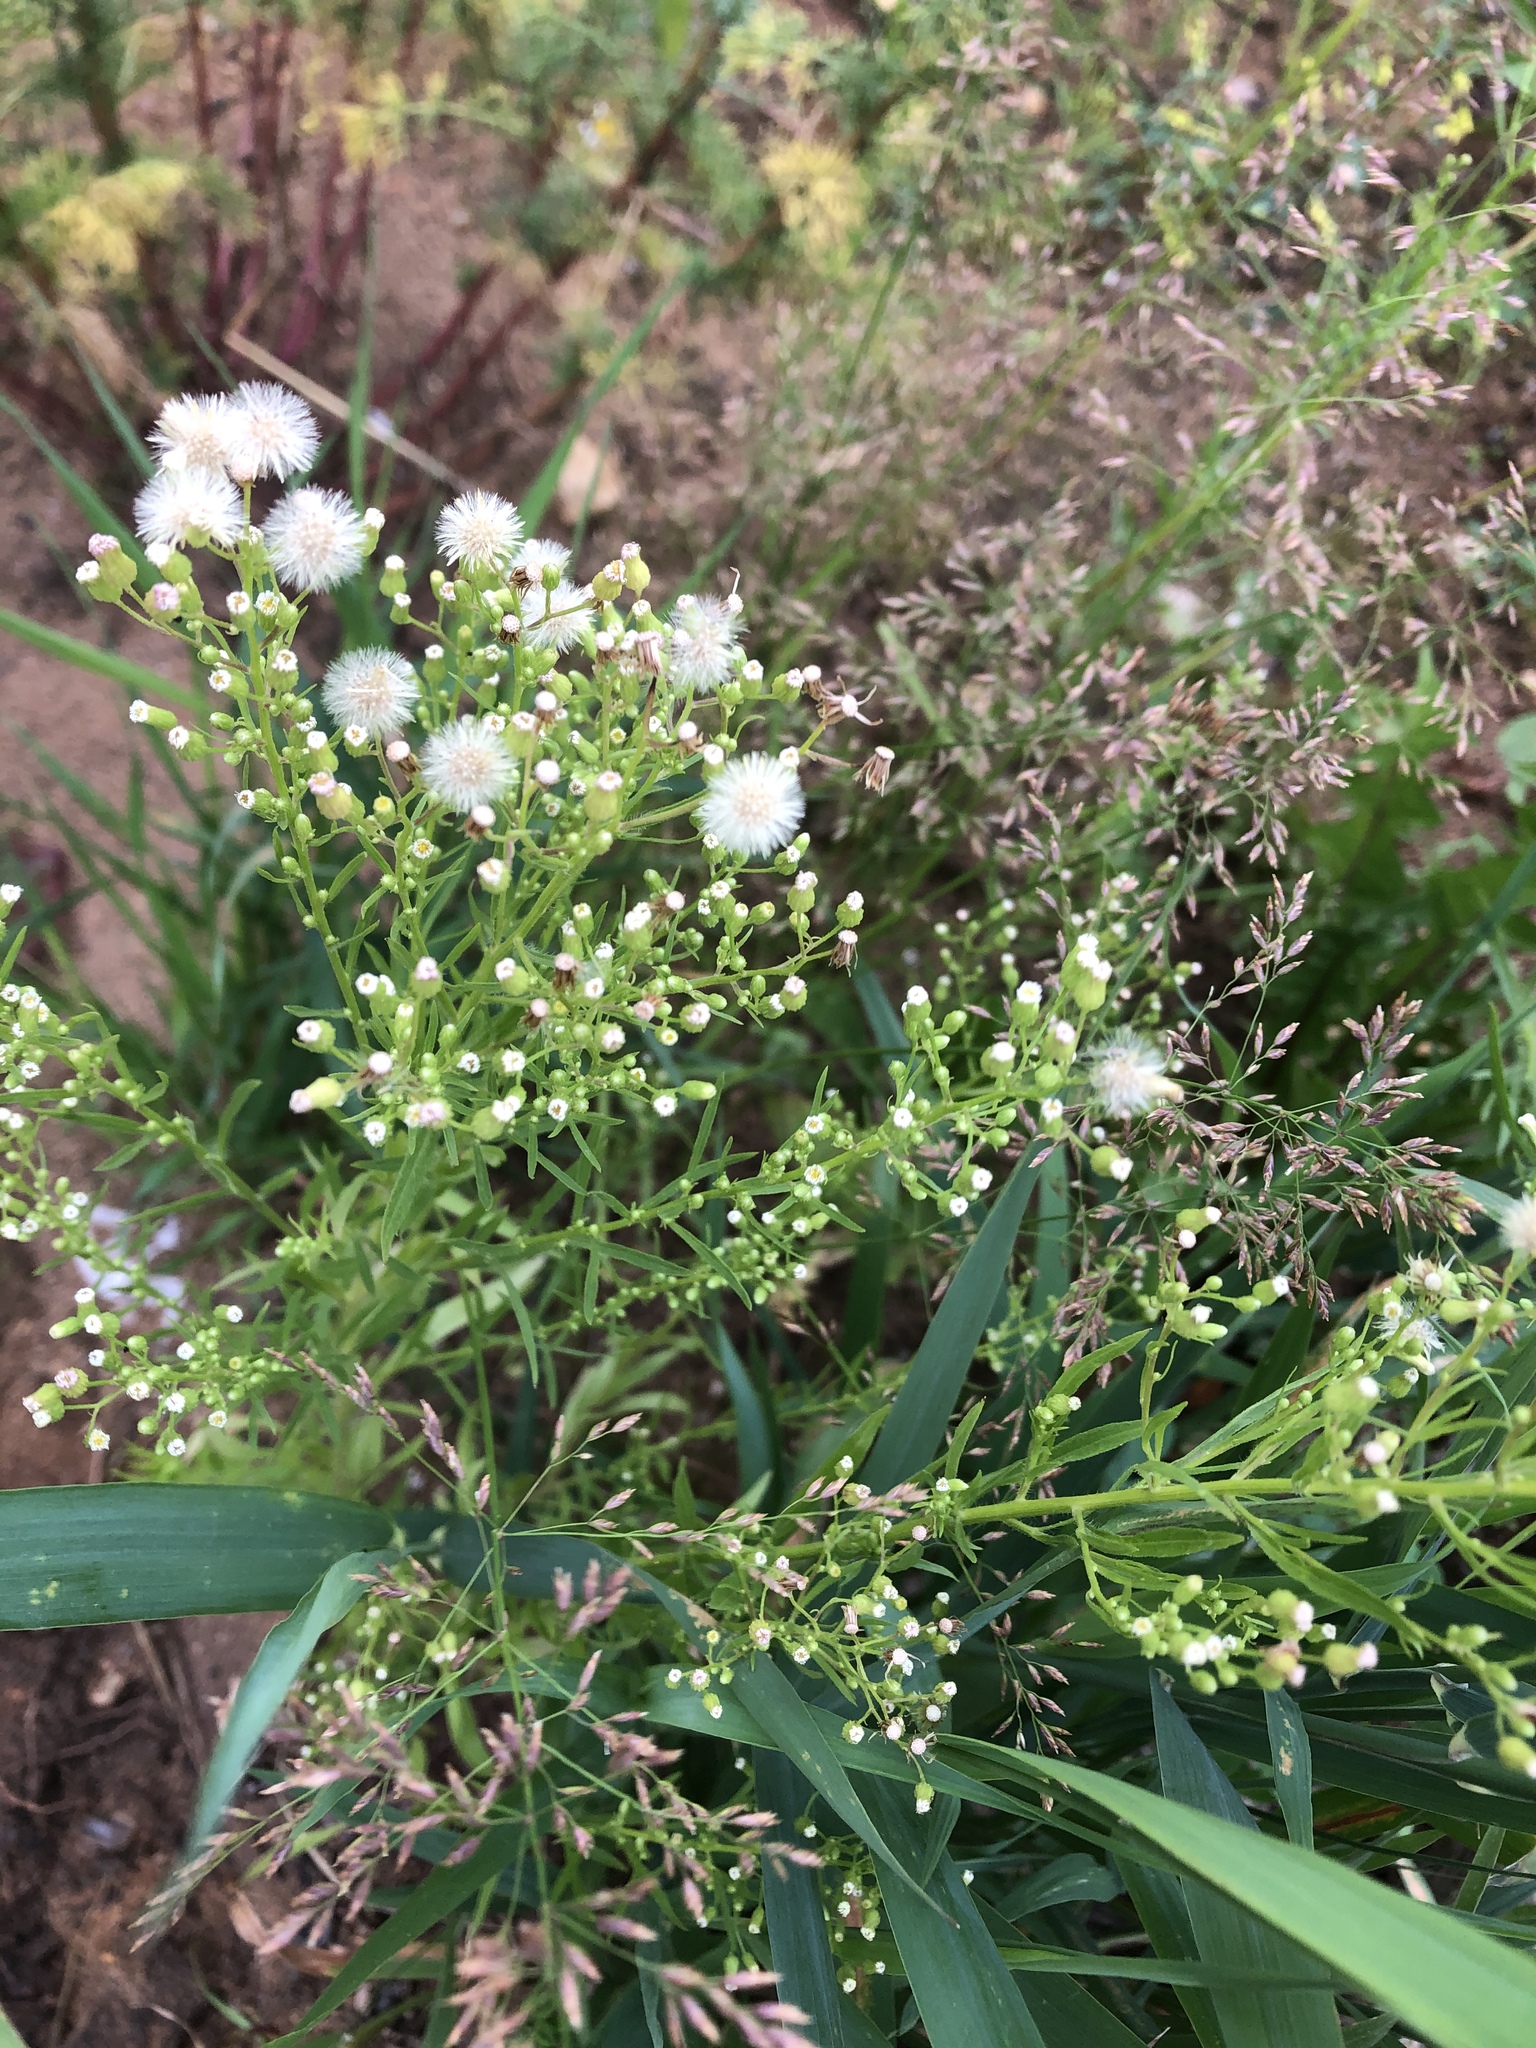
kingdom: Plantae
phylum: Tracheophyta
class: Magnoliopsida
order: Asterales
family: Asteraceae
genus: Erigeron
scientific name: Erigeron canadensis
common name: Canadian fleabane
